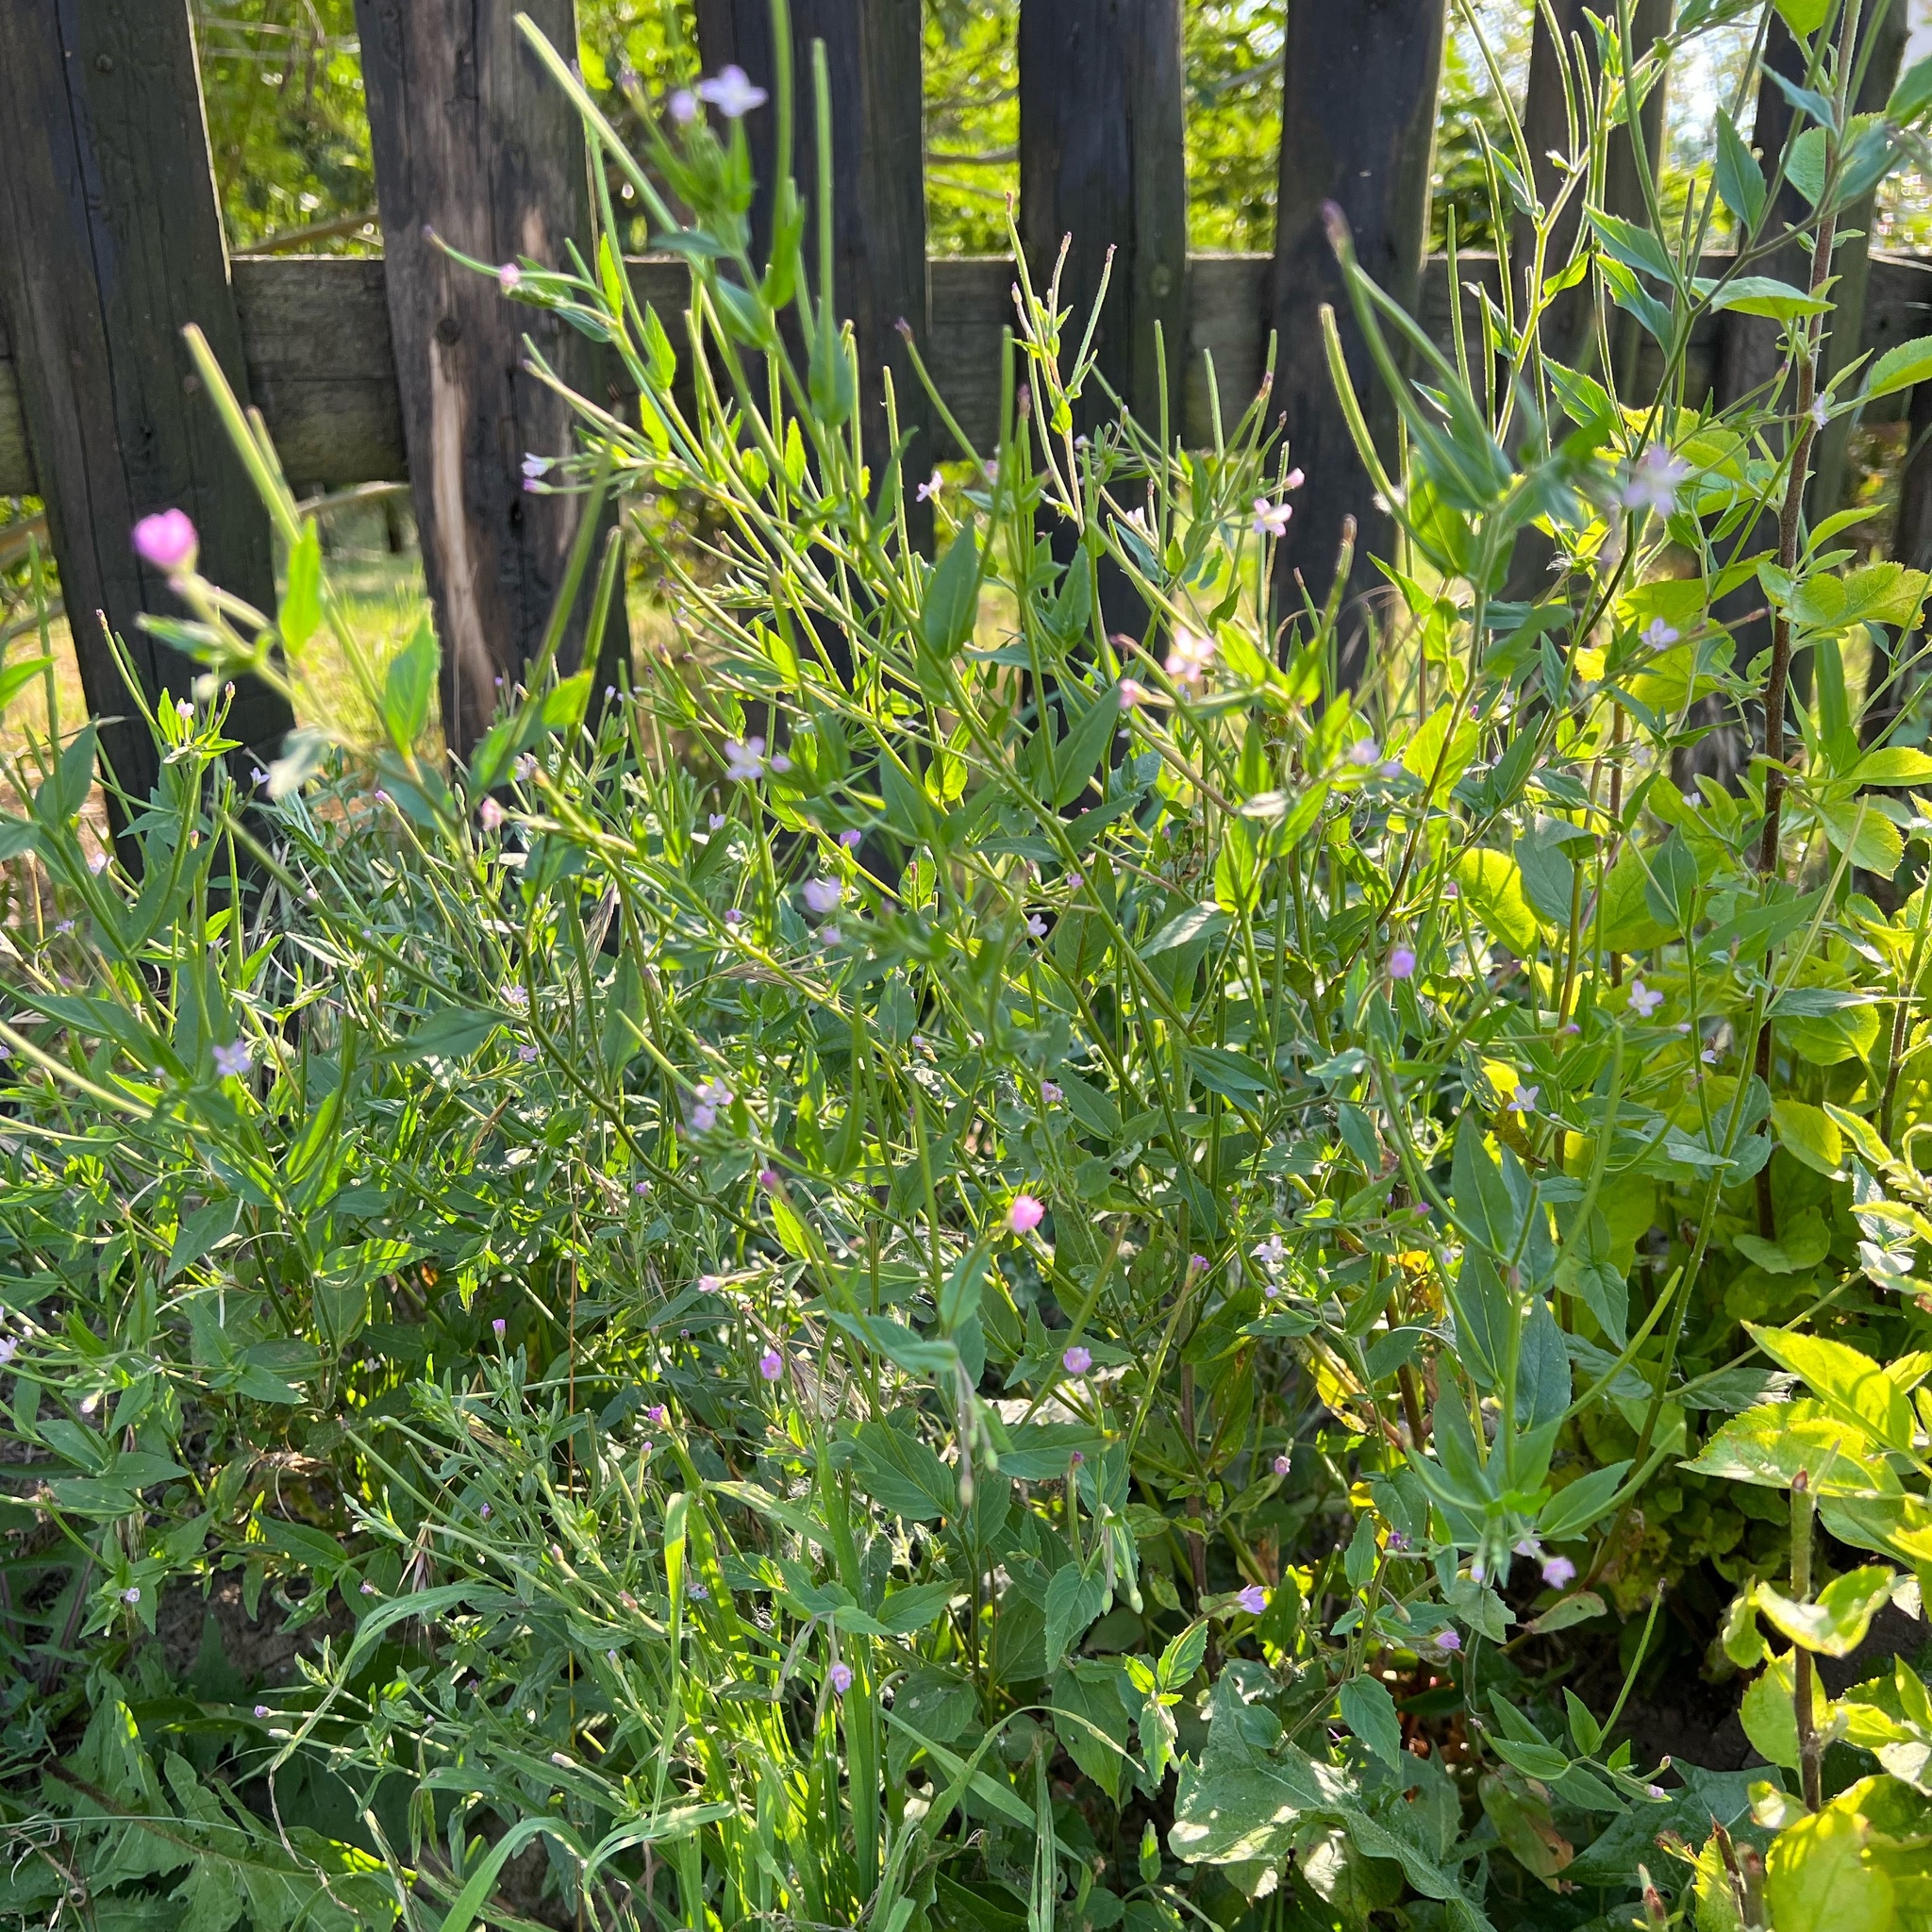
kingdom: Plantae
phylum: Tracheophyta
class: Magnoliopsida
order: Myrtales
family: Onagraceae
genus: Epilobium
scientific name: Epilobium ciliatum
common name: American willowherb
